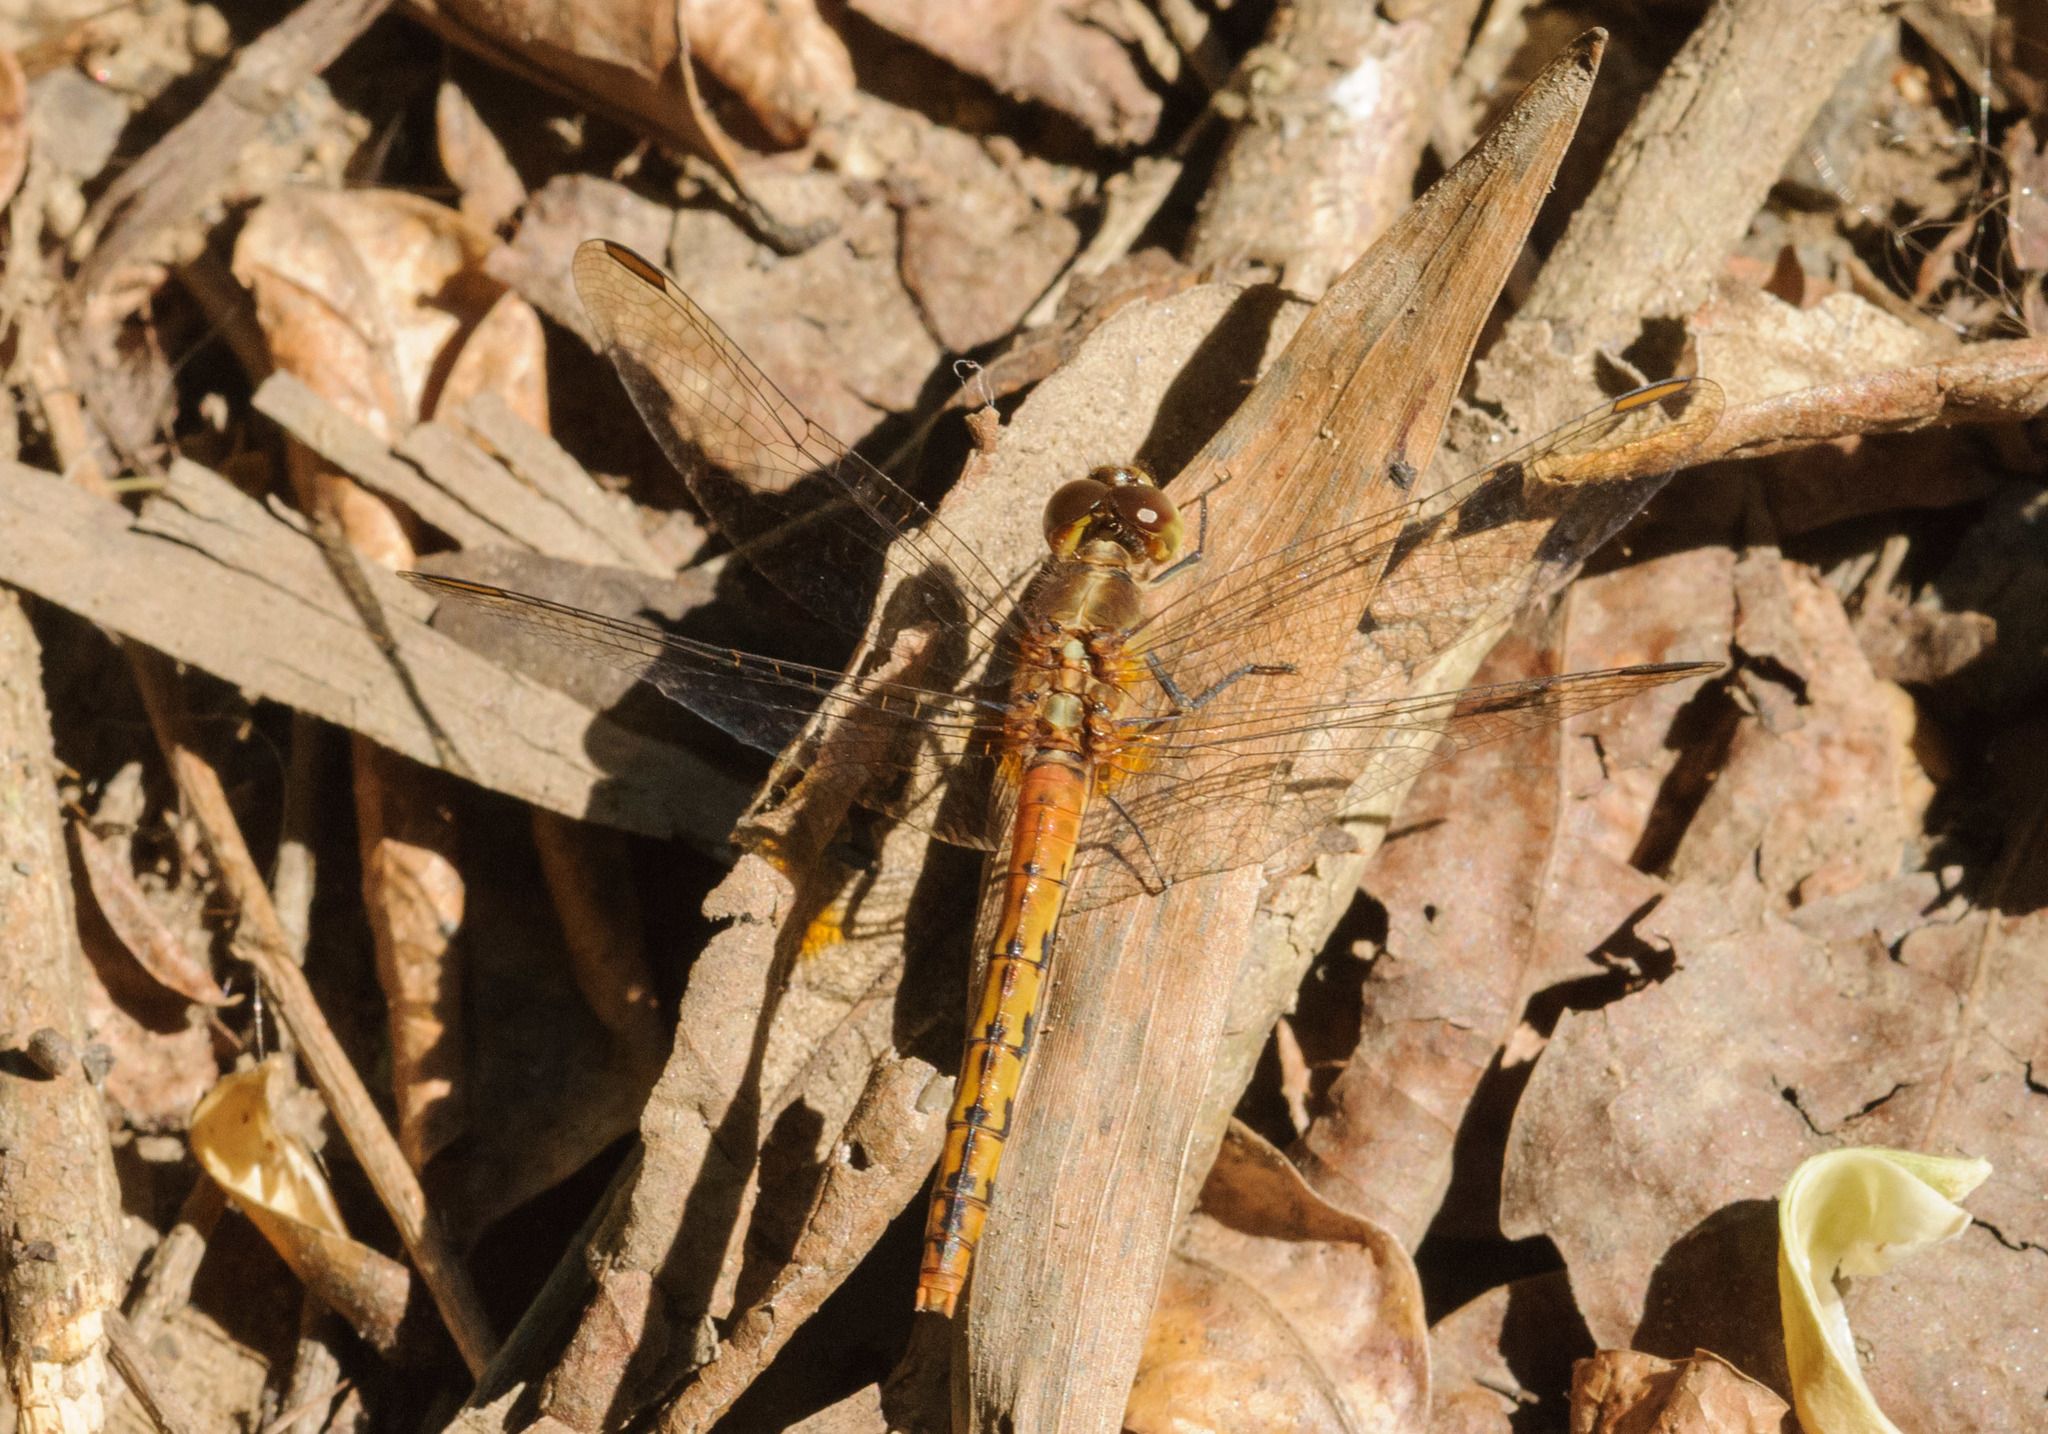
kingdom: Animalia
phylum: Arthropoda
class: Insecta
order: Odonata
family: Libellulidae
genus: Diplacodes
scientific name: Diplacodes melanopsis
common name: Black-faced percher
